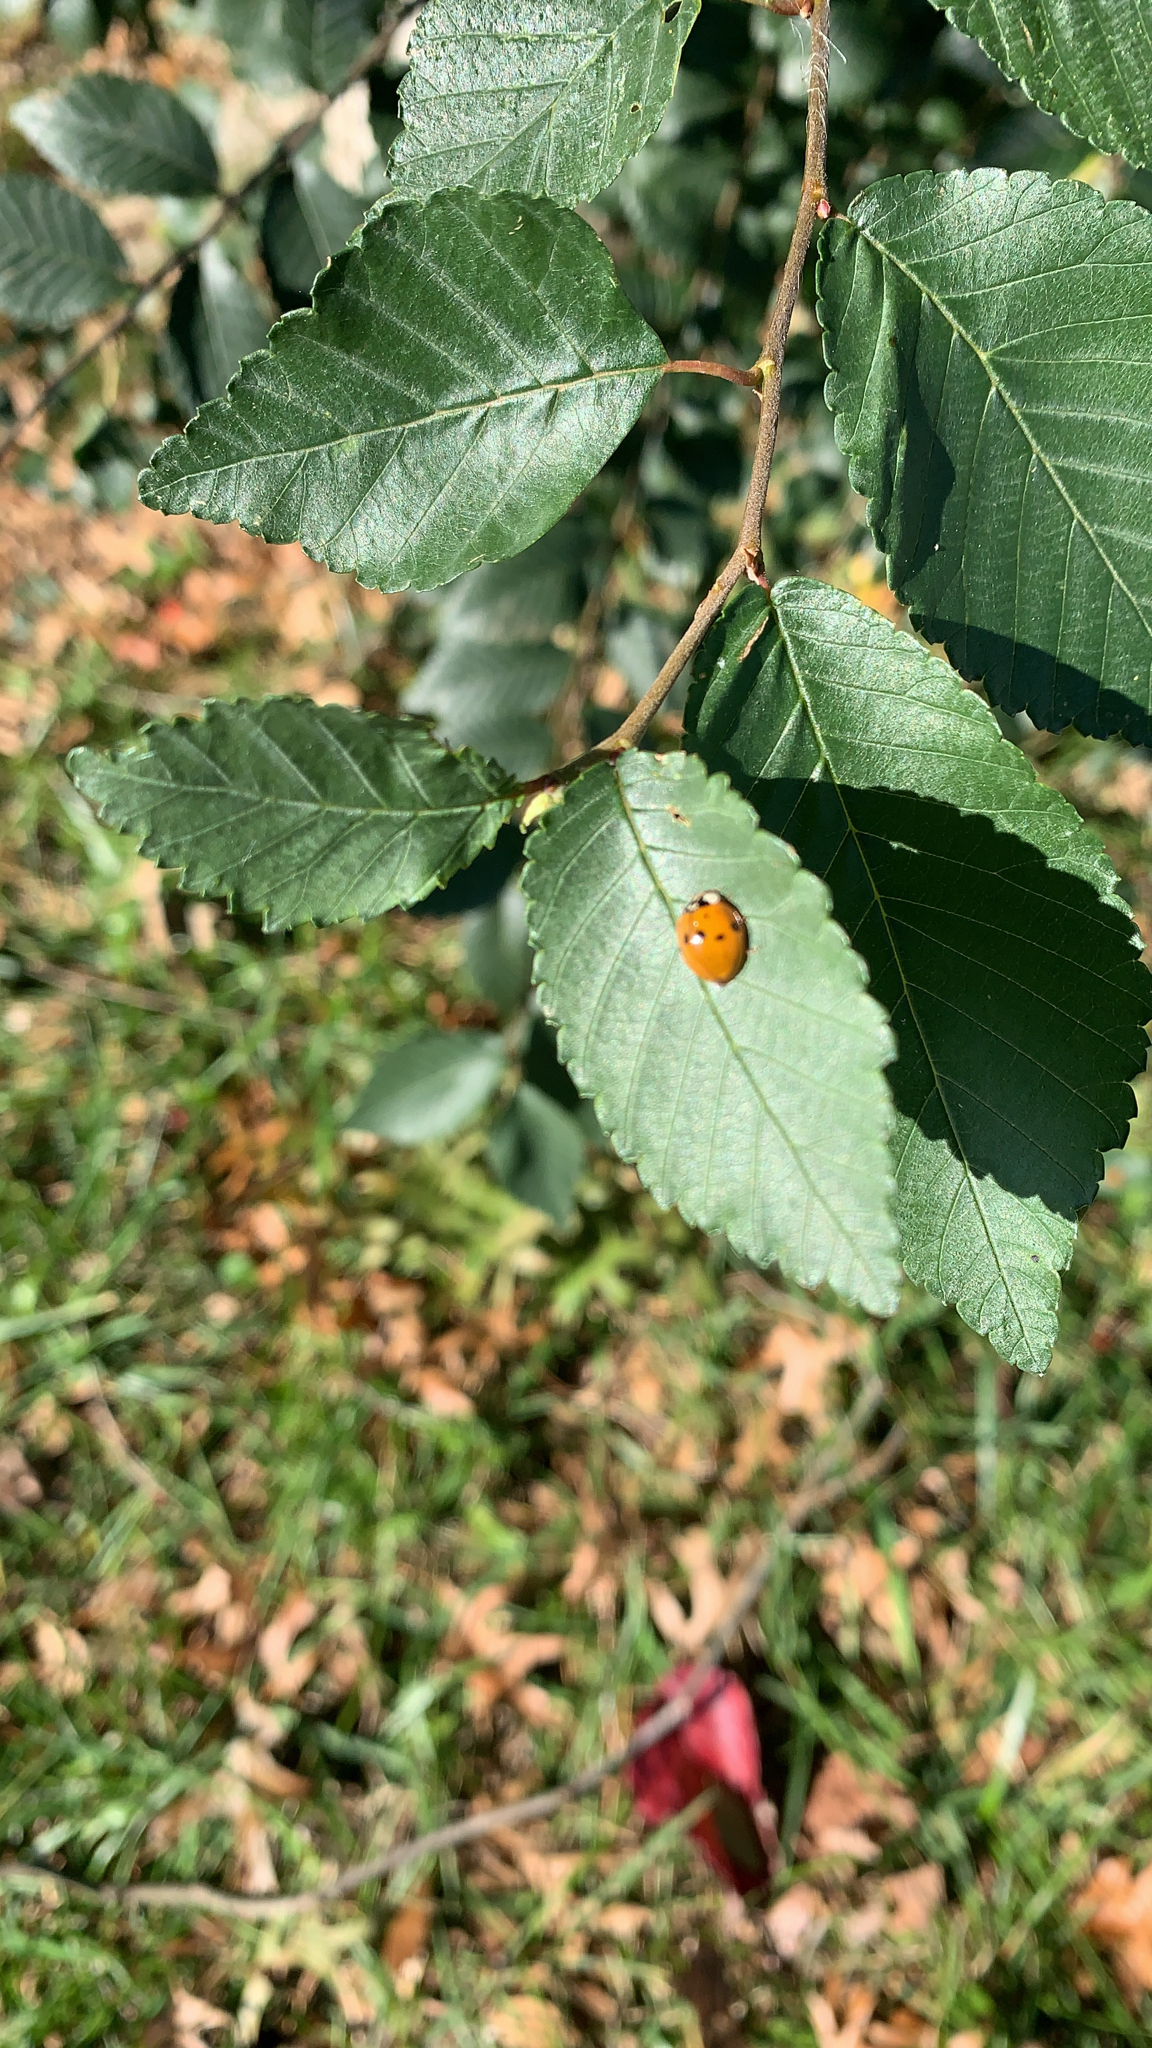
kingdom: Animalia
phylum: Arthropoda
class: Insecta
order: Coleoptera
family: Coccinellidae
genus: Harmonia
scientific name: Harmonia axyridis
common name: Harlequin ladybird
